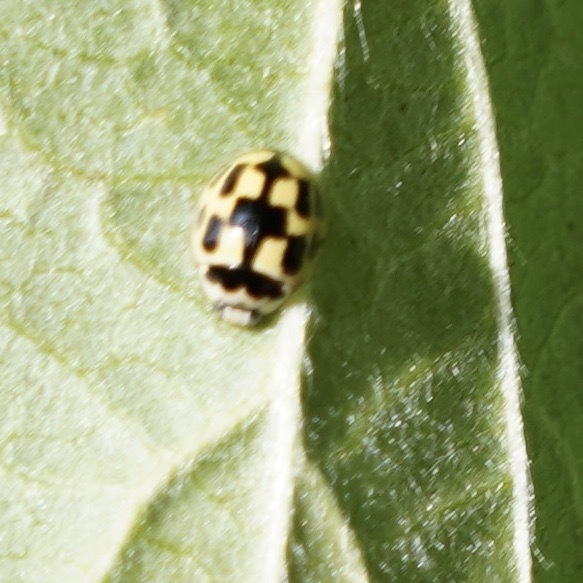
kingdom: Animalia
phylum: Arthropoda
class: Insecta
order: Coleoptera
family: Coccinellidae
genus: Propylaea
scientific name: Propylaea quatuordecimpunctata
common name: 14-spotted ladybird beetle
